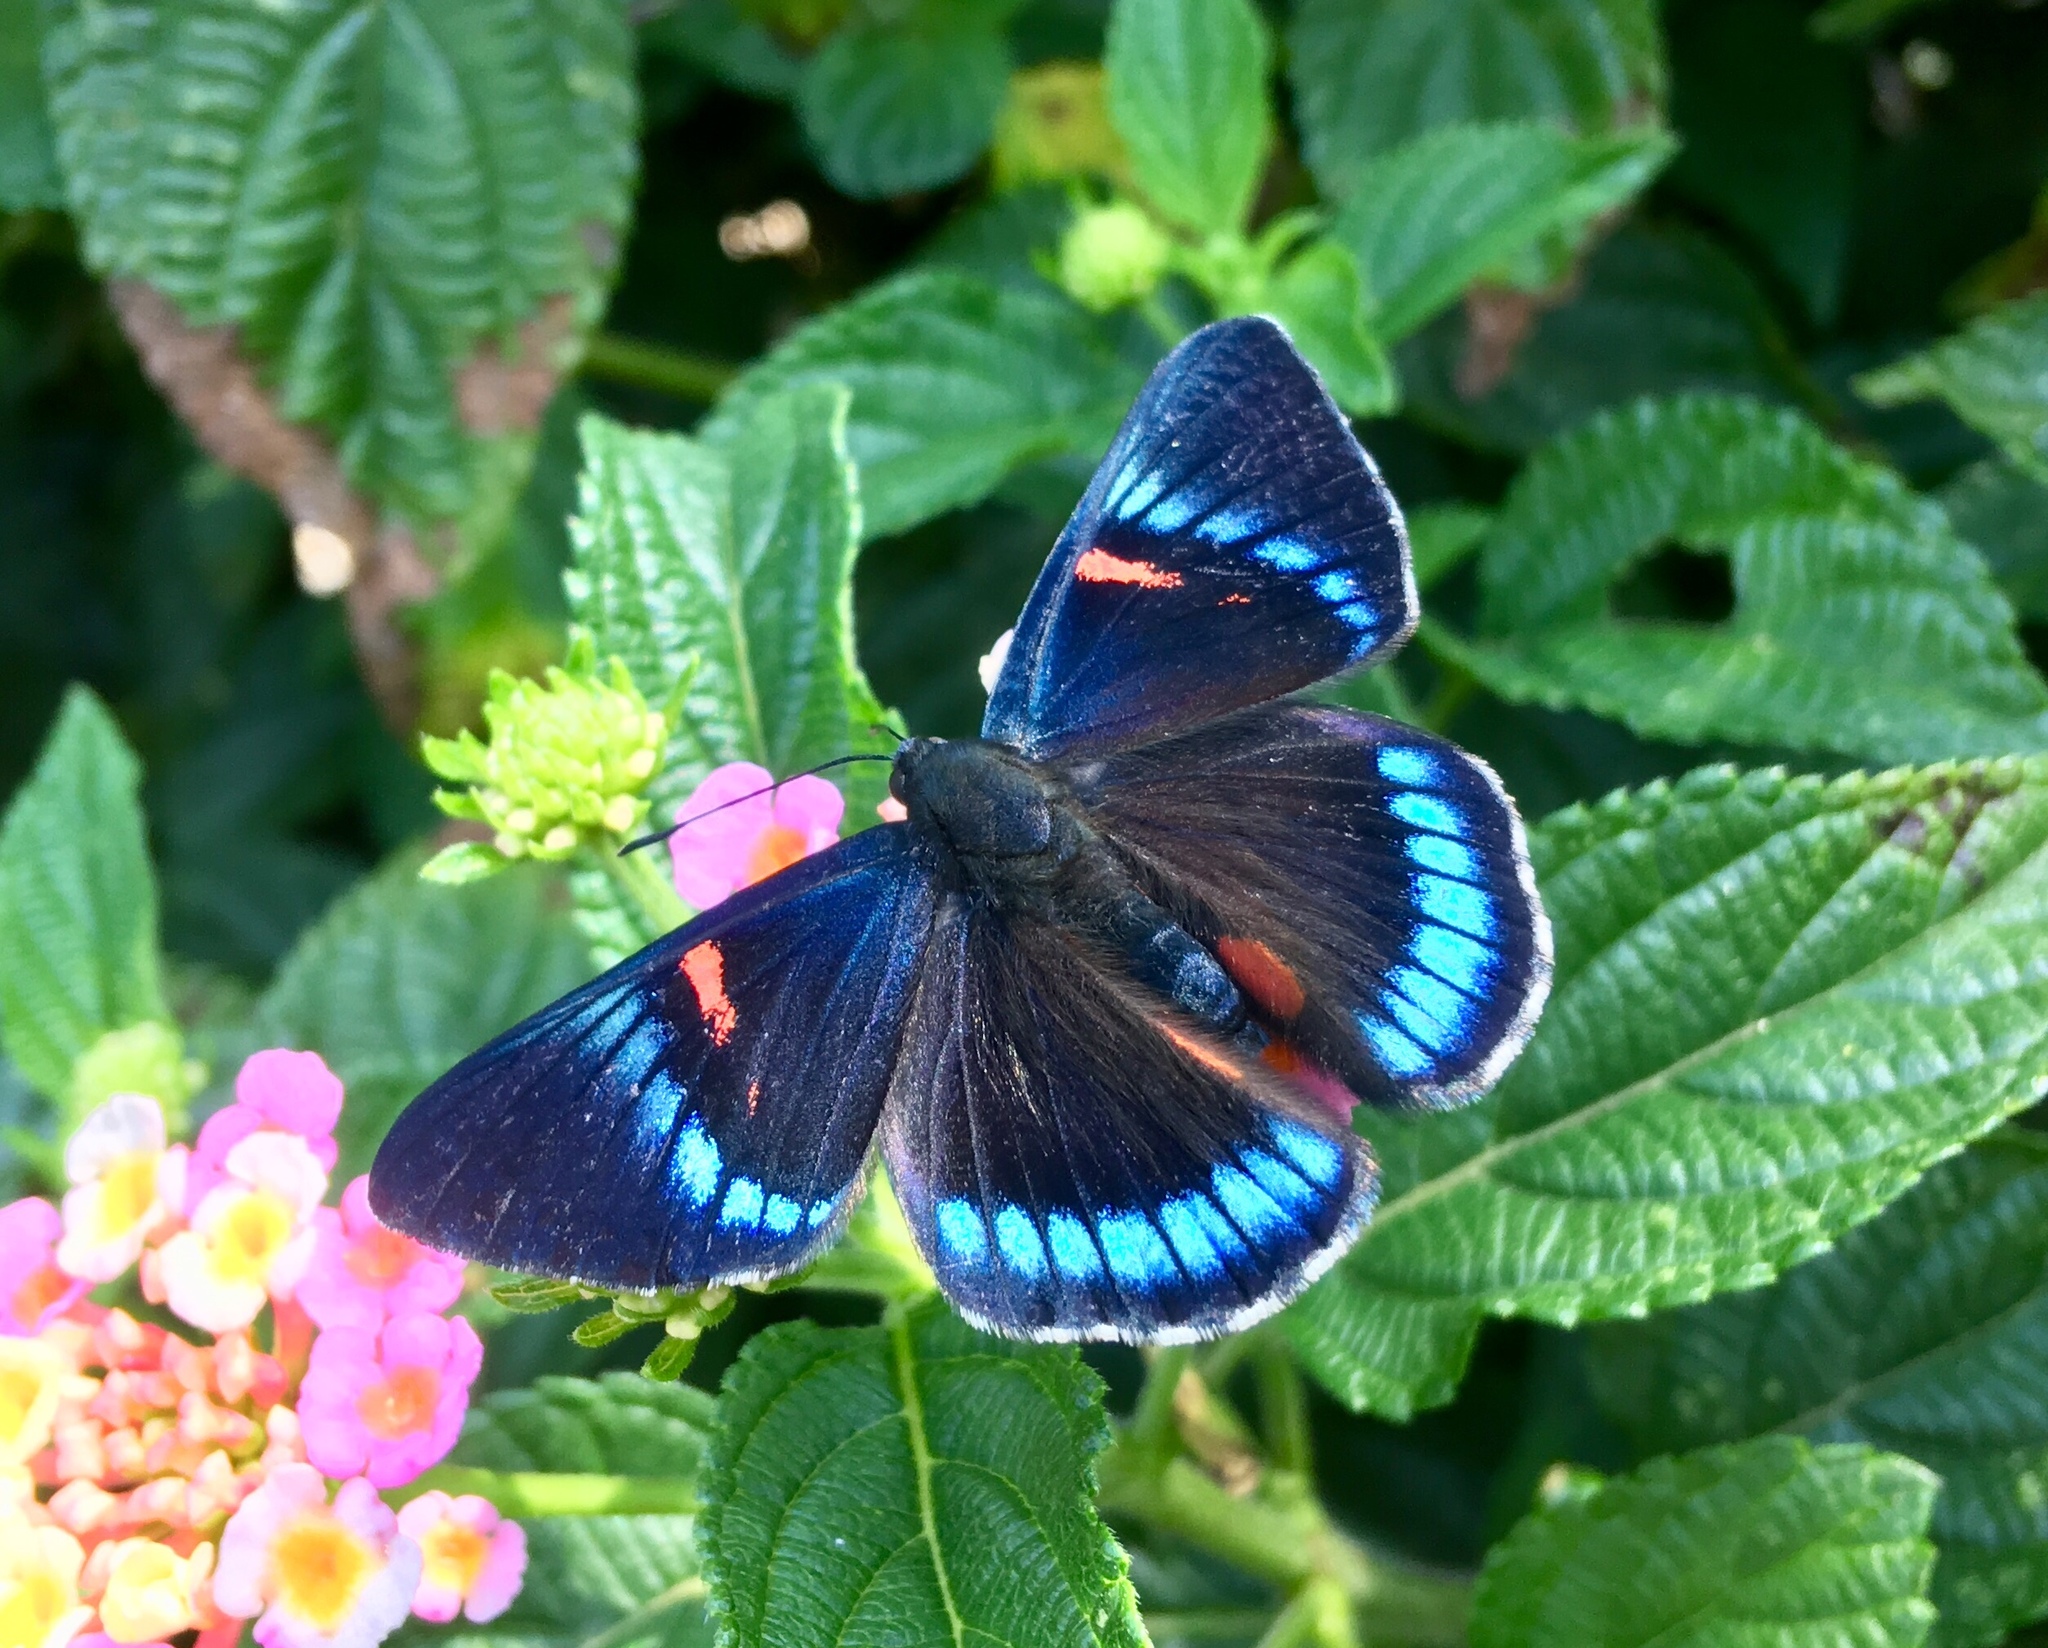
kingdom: Animalia
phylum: Arthropoda
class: Insecta
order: Lepidoptera
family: Lycaenidae
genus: Necyria
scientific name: Necyria bellona
